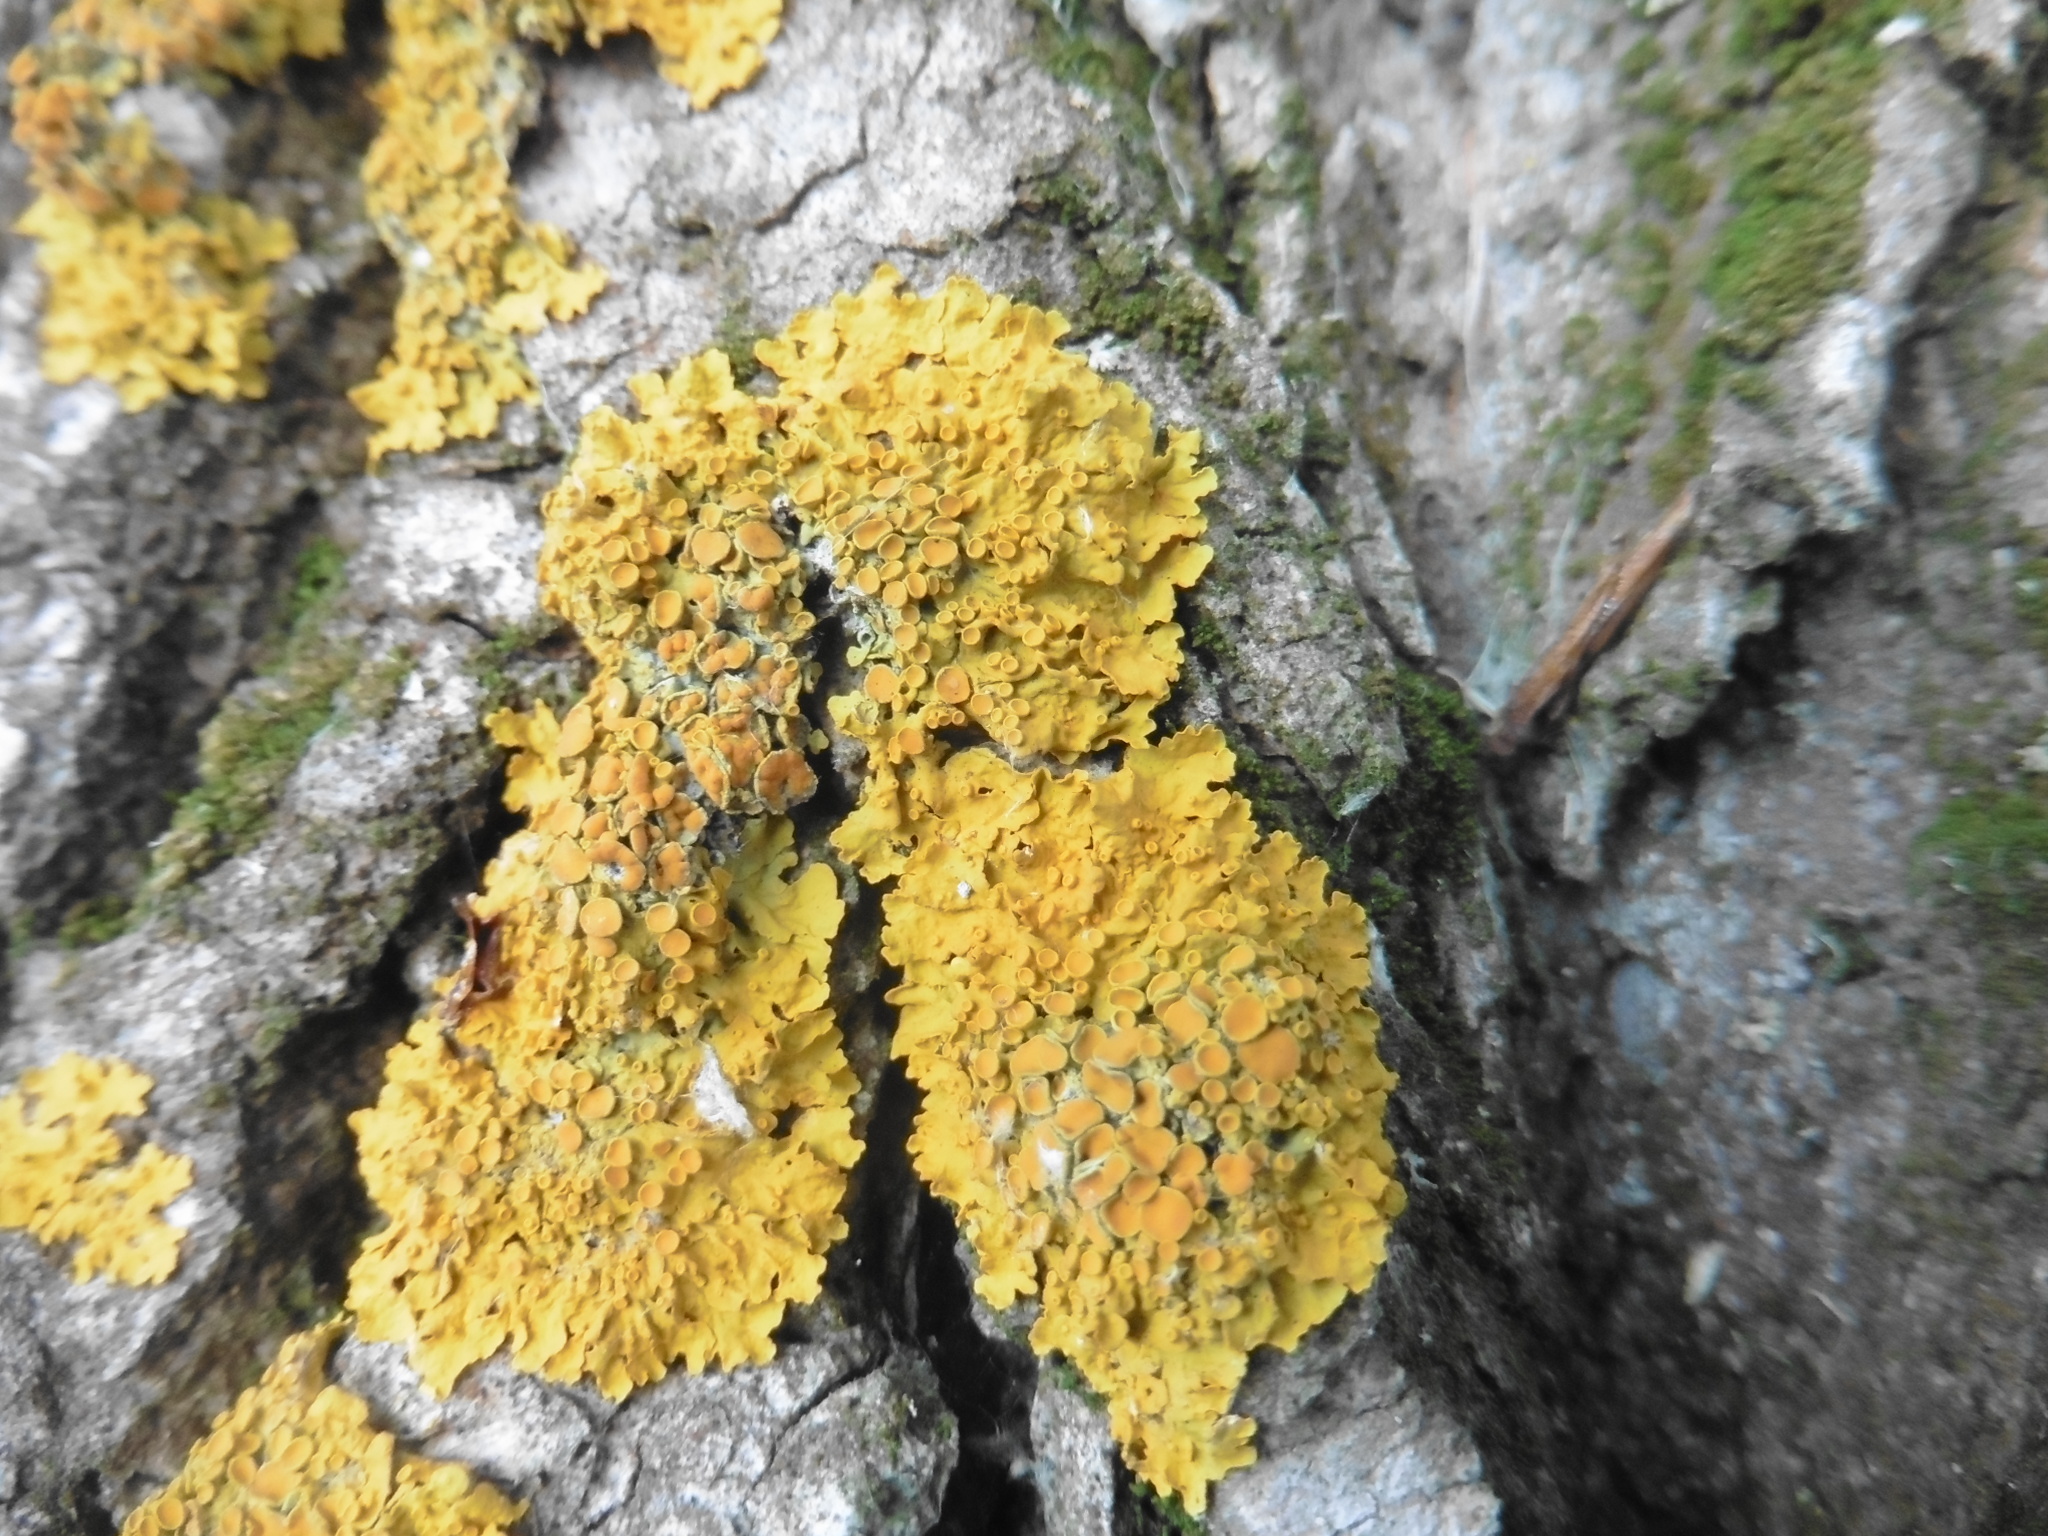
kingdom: Fungi
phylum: Ascomycota
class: Lecanoromycetes
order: Teloschistales
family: Teloschistaceae
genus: Xanthoria
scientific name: Xanthoria parietina
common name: Common orange lichen
